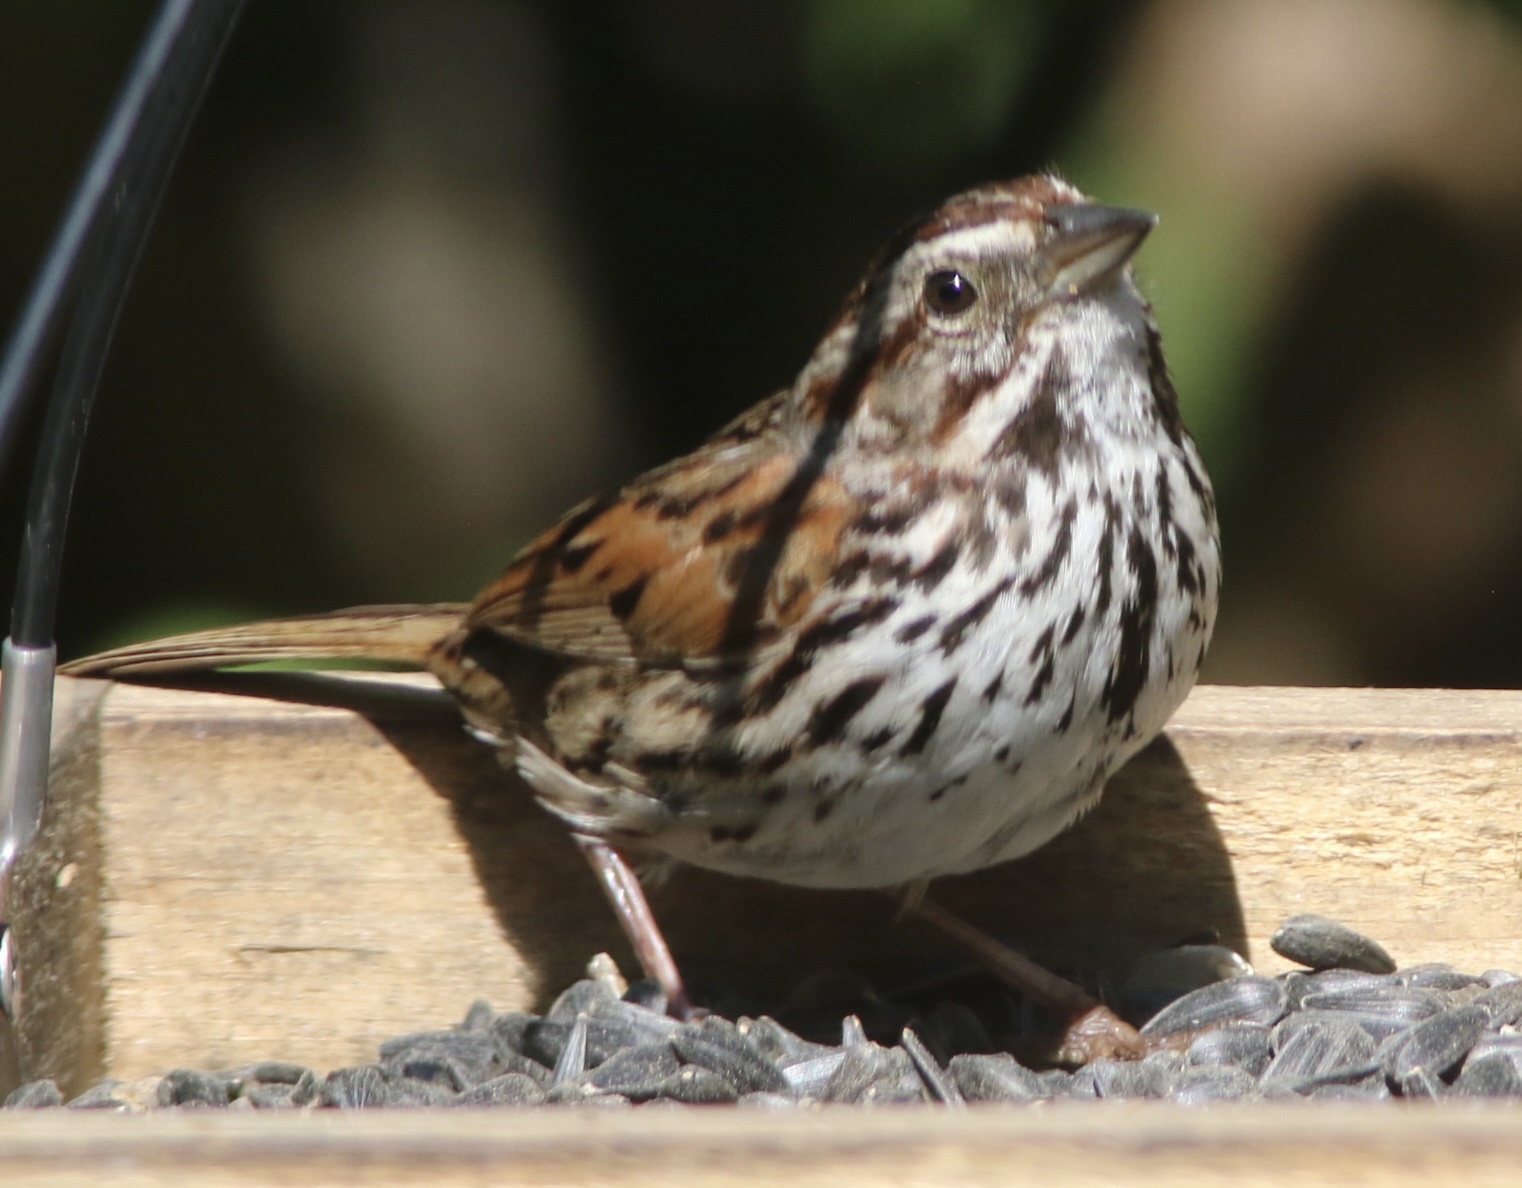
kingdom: Animalia
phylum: Chordata
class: Aves
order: Passeriformes
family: Passerellidae
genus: Melospiza
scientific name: Melospiza melodia
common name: Song sparrow
